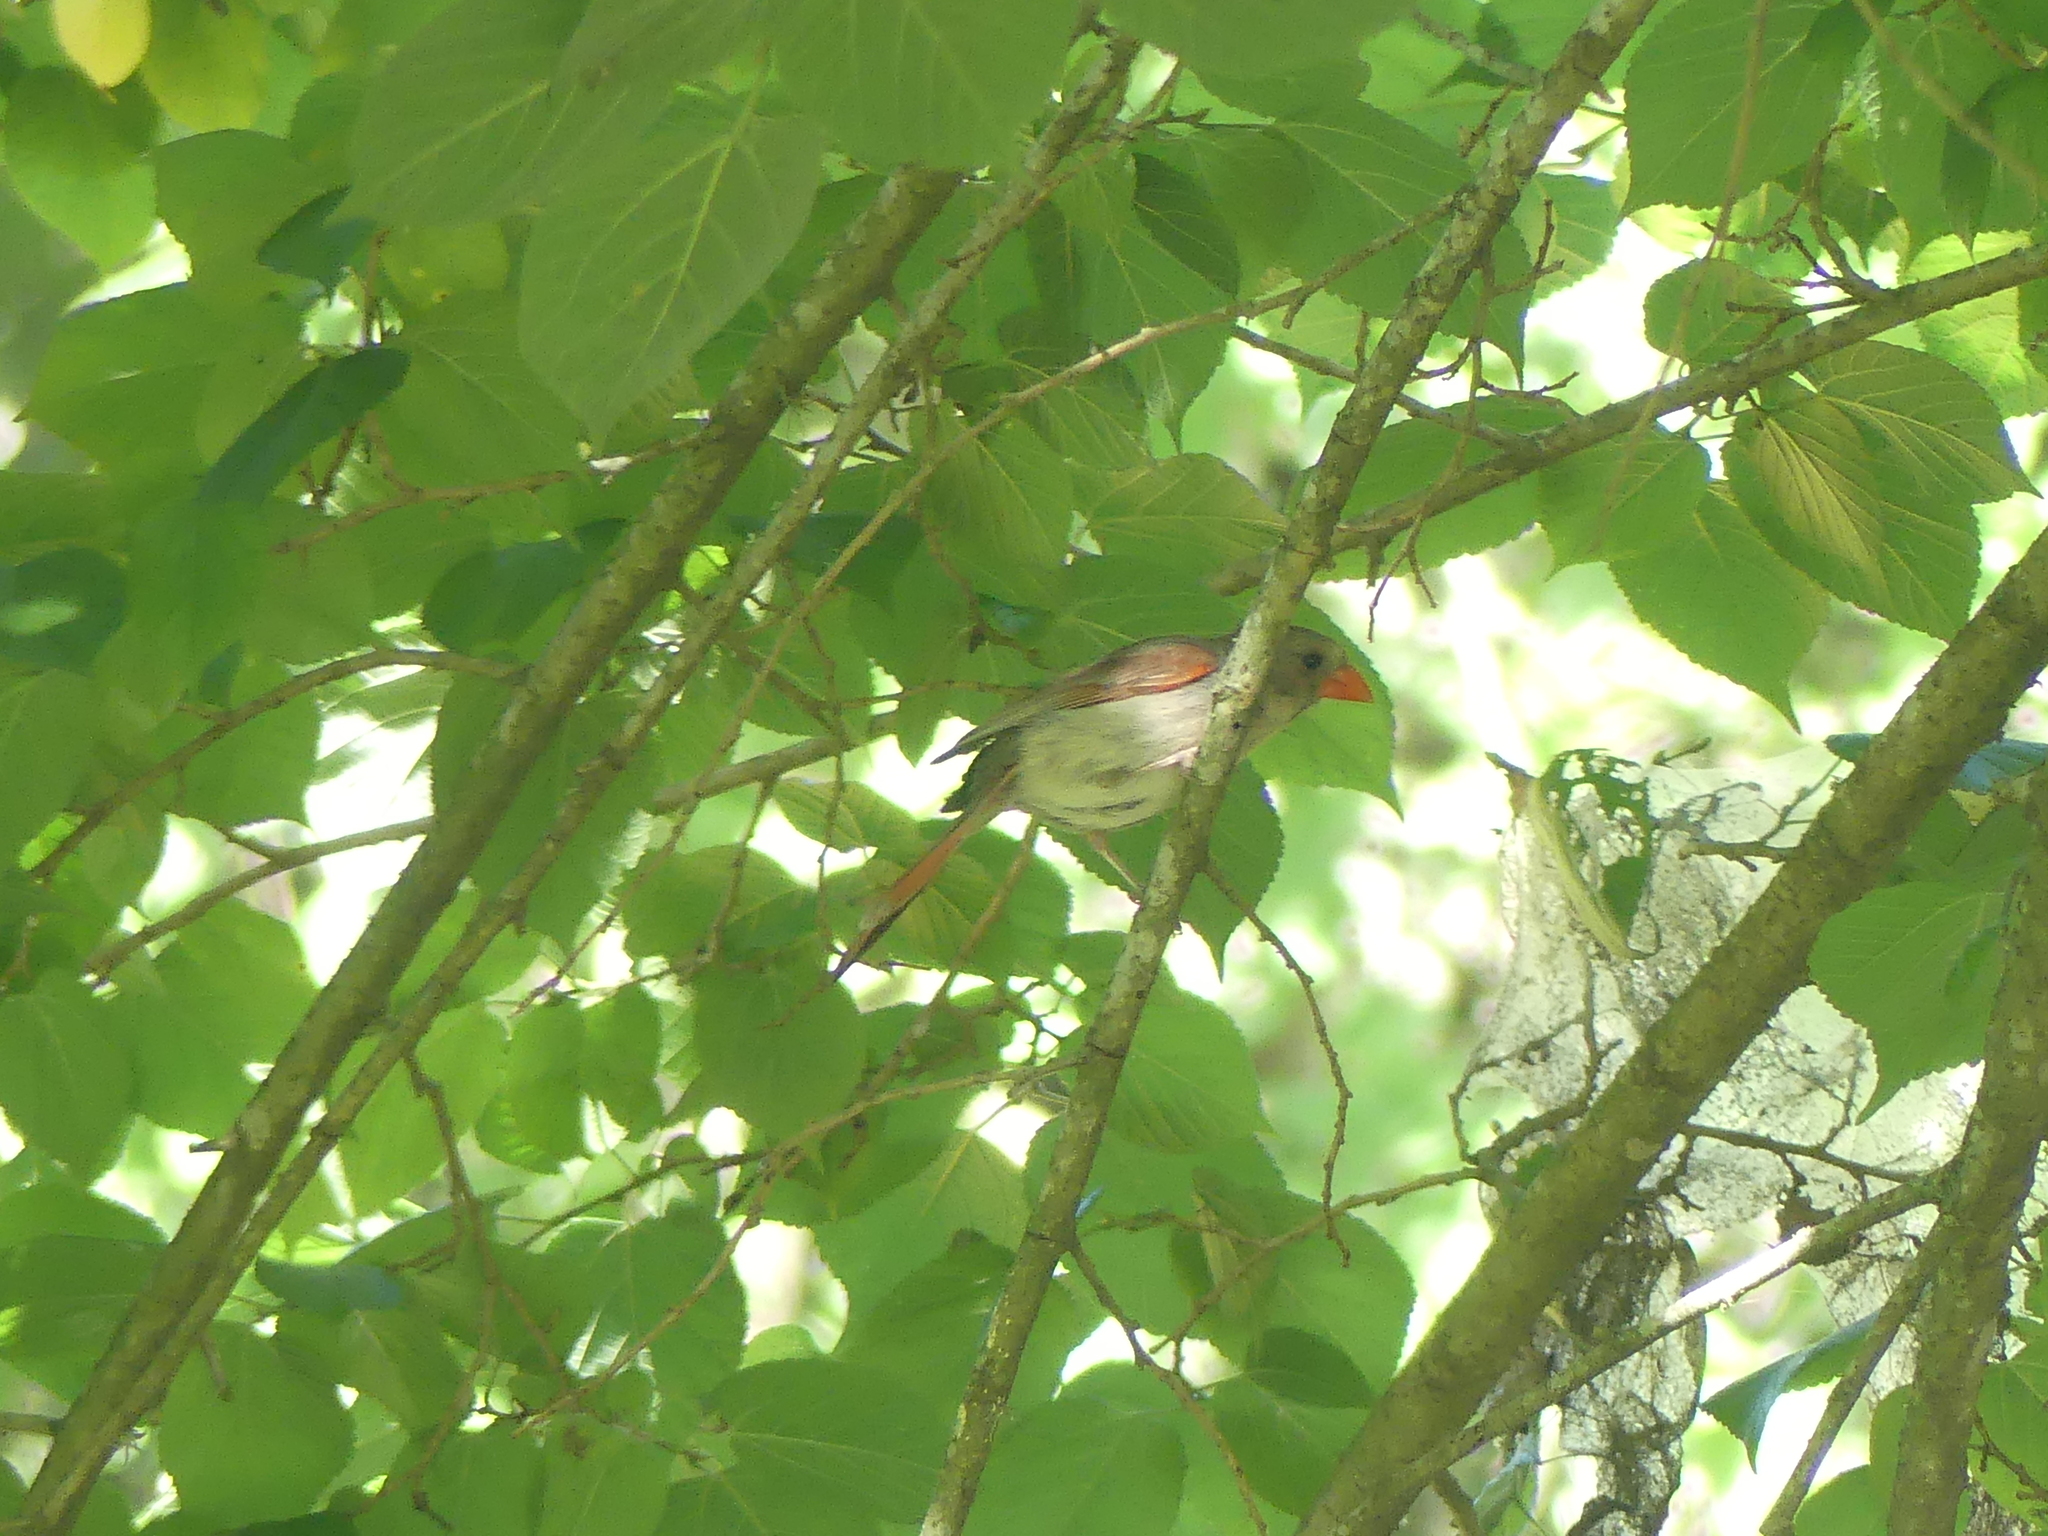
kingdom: Animalia
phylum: Chordata
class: Aves
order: Passeriformes
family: Cardinalidae
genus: Cardinalis
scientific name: Cardinalis cardinalis
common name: Northern cardinal
